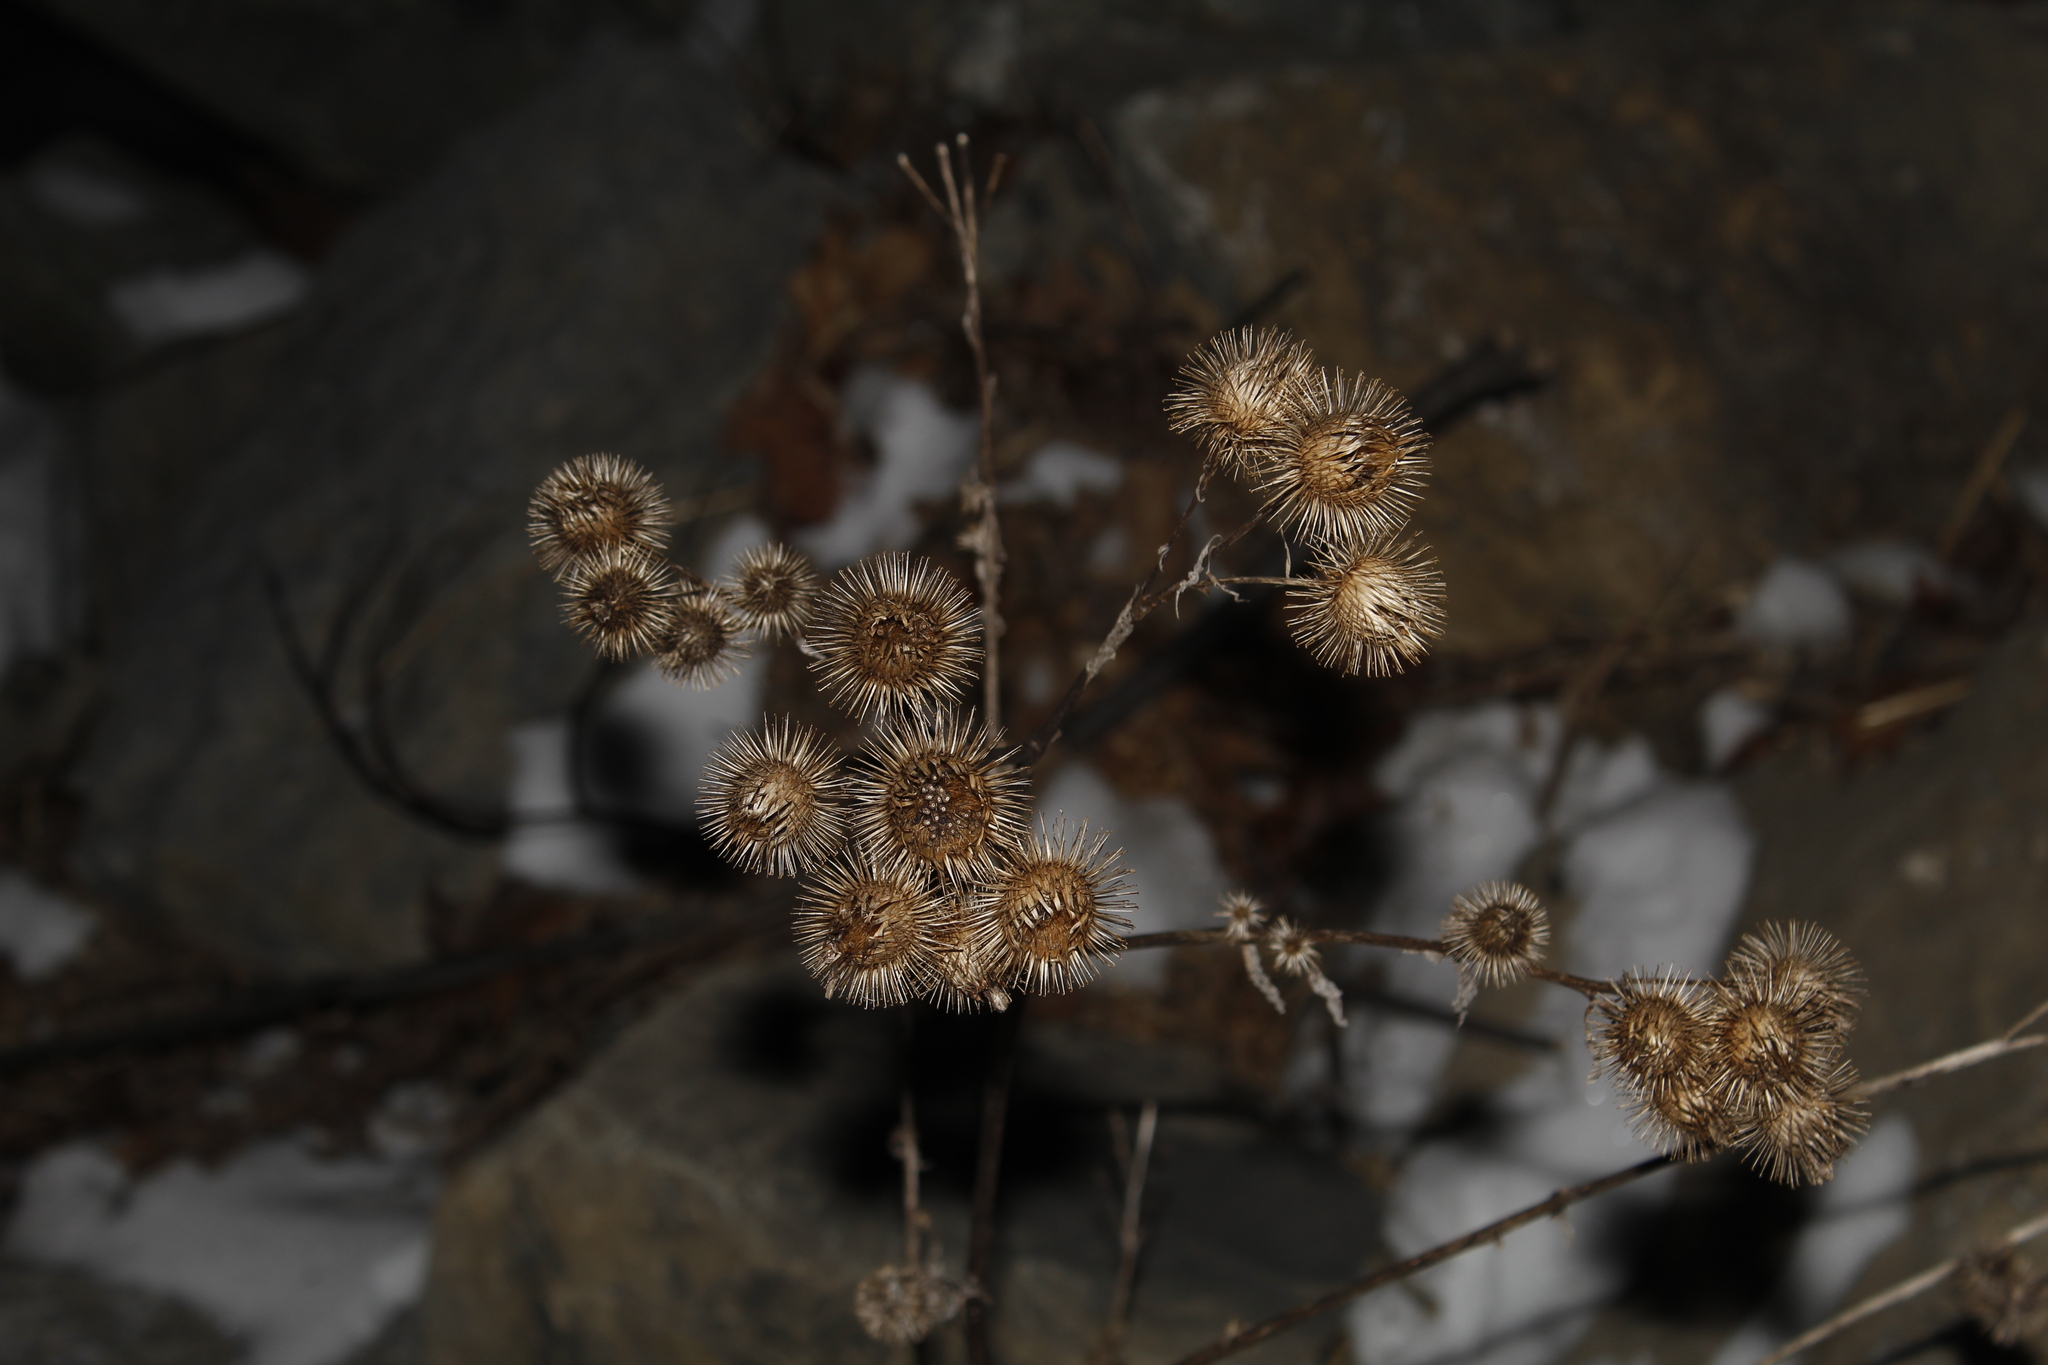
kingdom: Plantae
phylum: Tracheophyta
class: Magnoliopsida
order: Asterales
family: Asteraceae
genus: Arctium
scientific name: Arctium minus
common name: Lesser burdock
